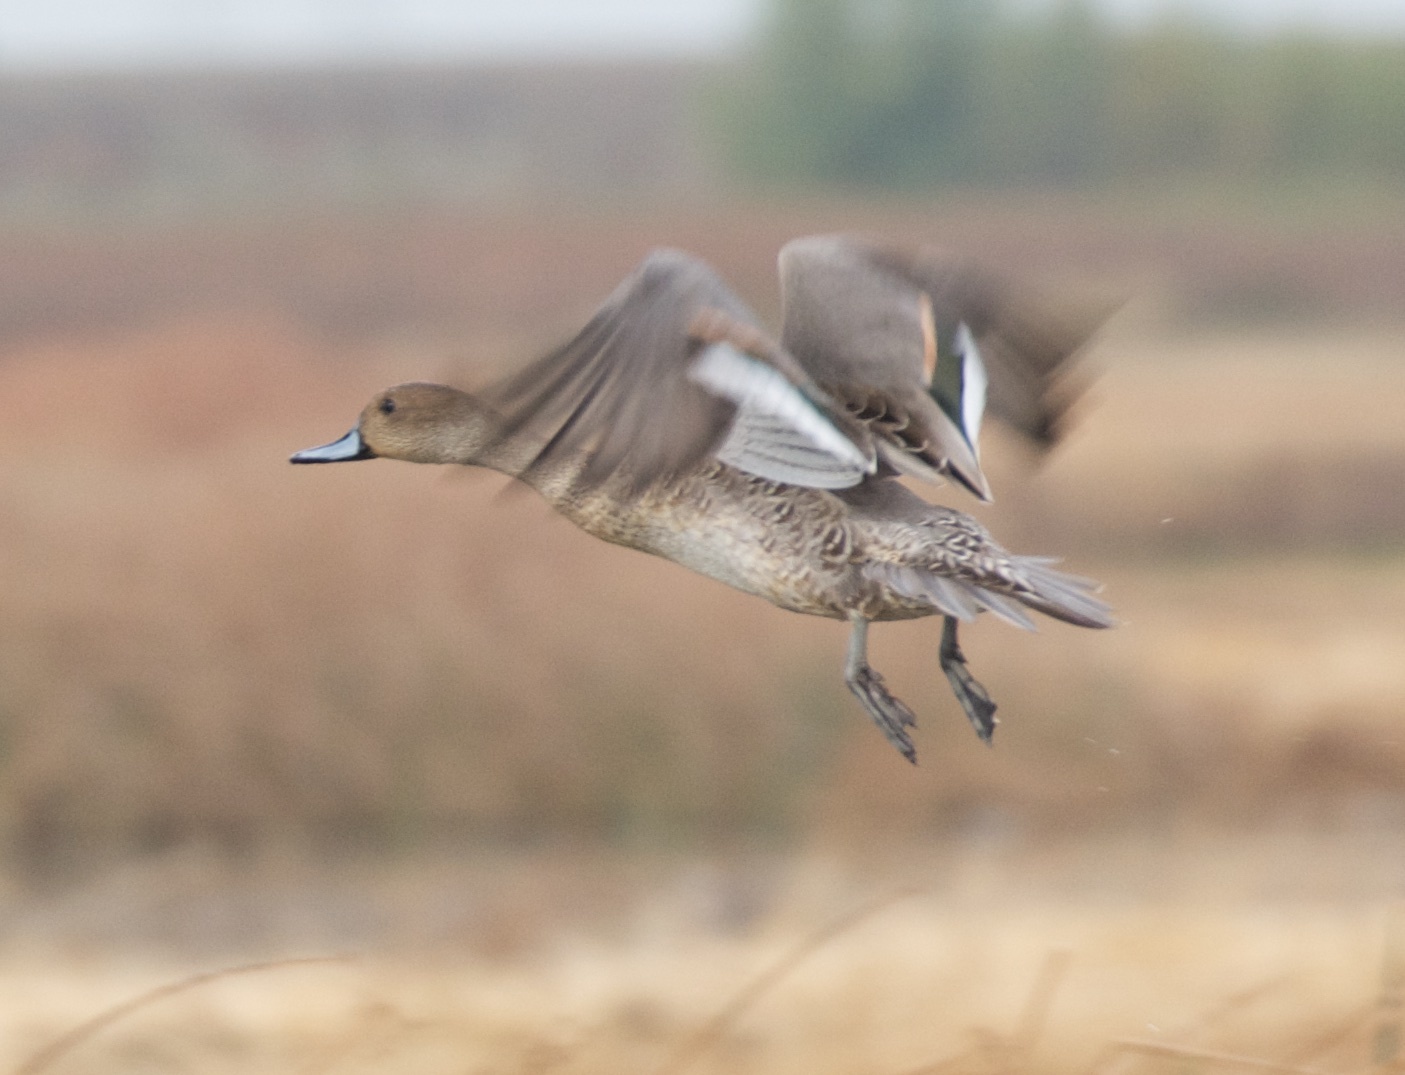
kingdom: Animalia
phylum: Chordata
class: Aves
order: Anseriformes
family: Anatidae
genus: Anas
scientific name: Anas acuta
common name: Northern pintail
